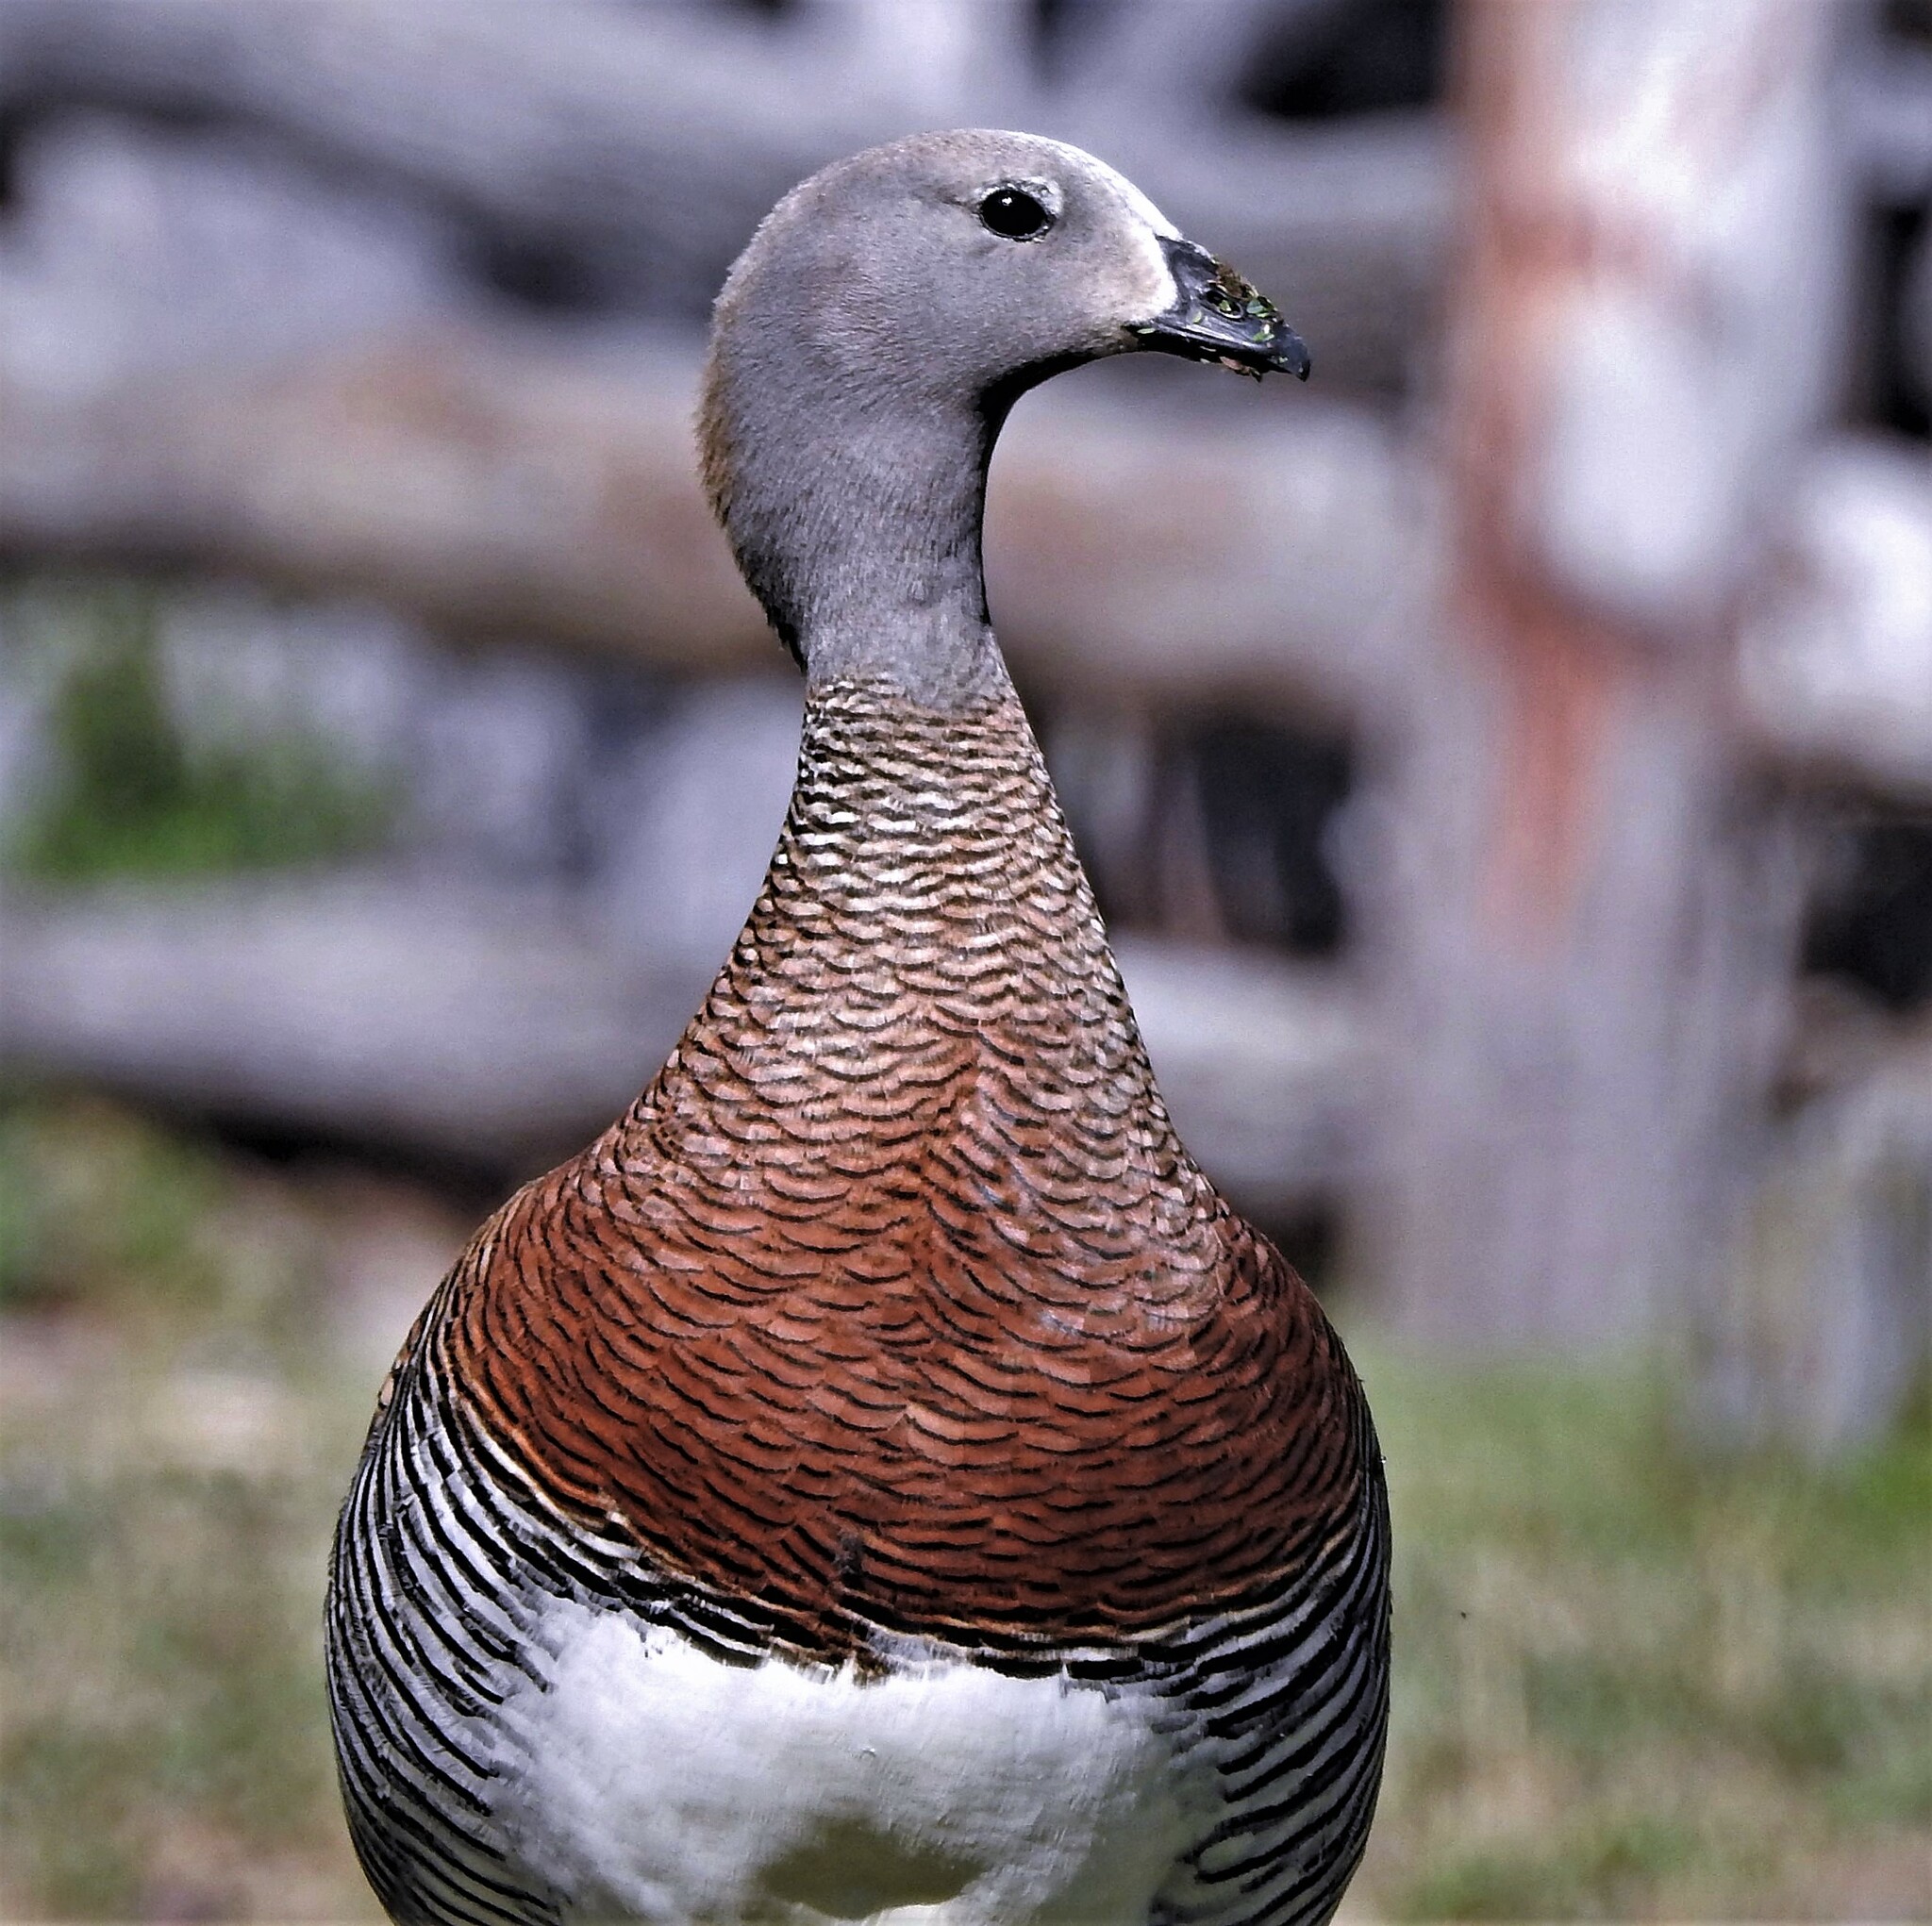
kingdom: Animalia
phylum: Chordata
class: Aves
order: Anseriformes
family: Anatidae
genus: Chloephaga
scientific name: Chloephaga poliocephala
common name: Ashy-headed goose
